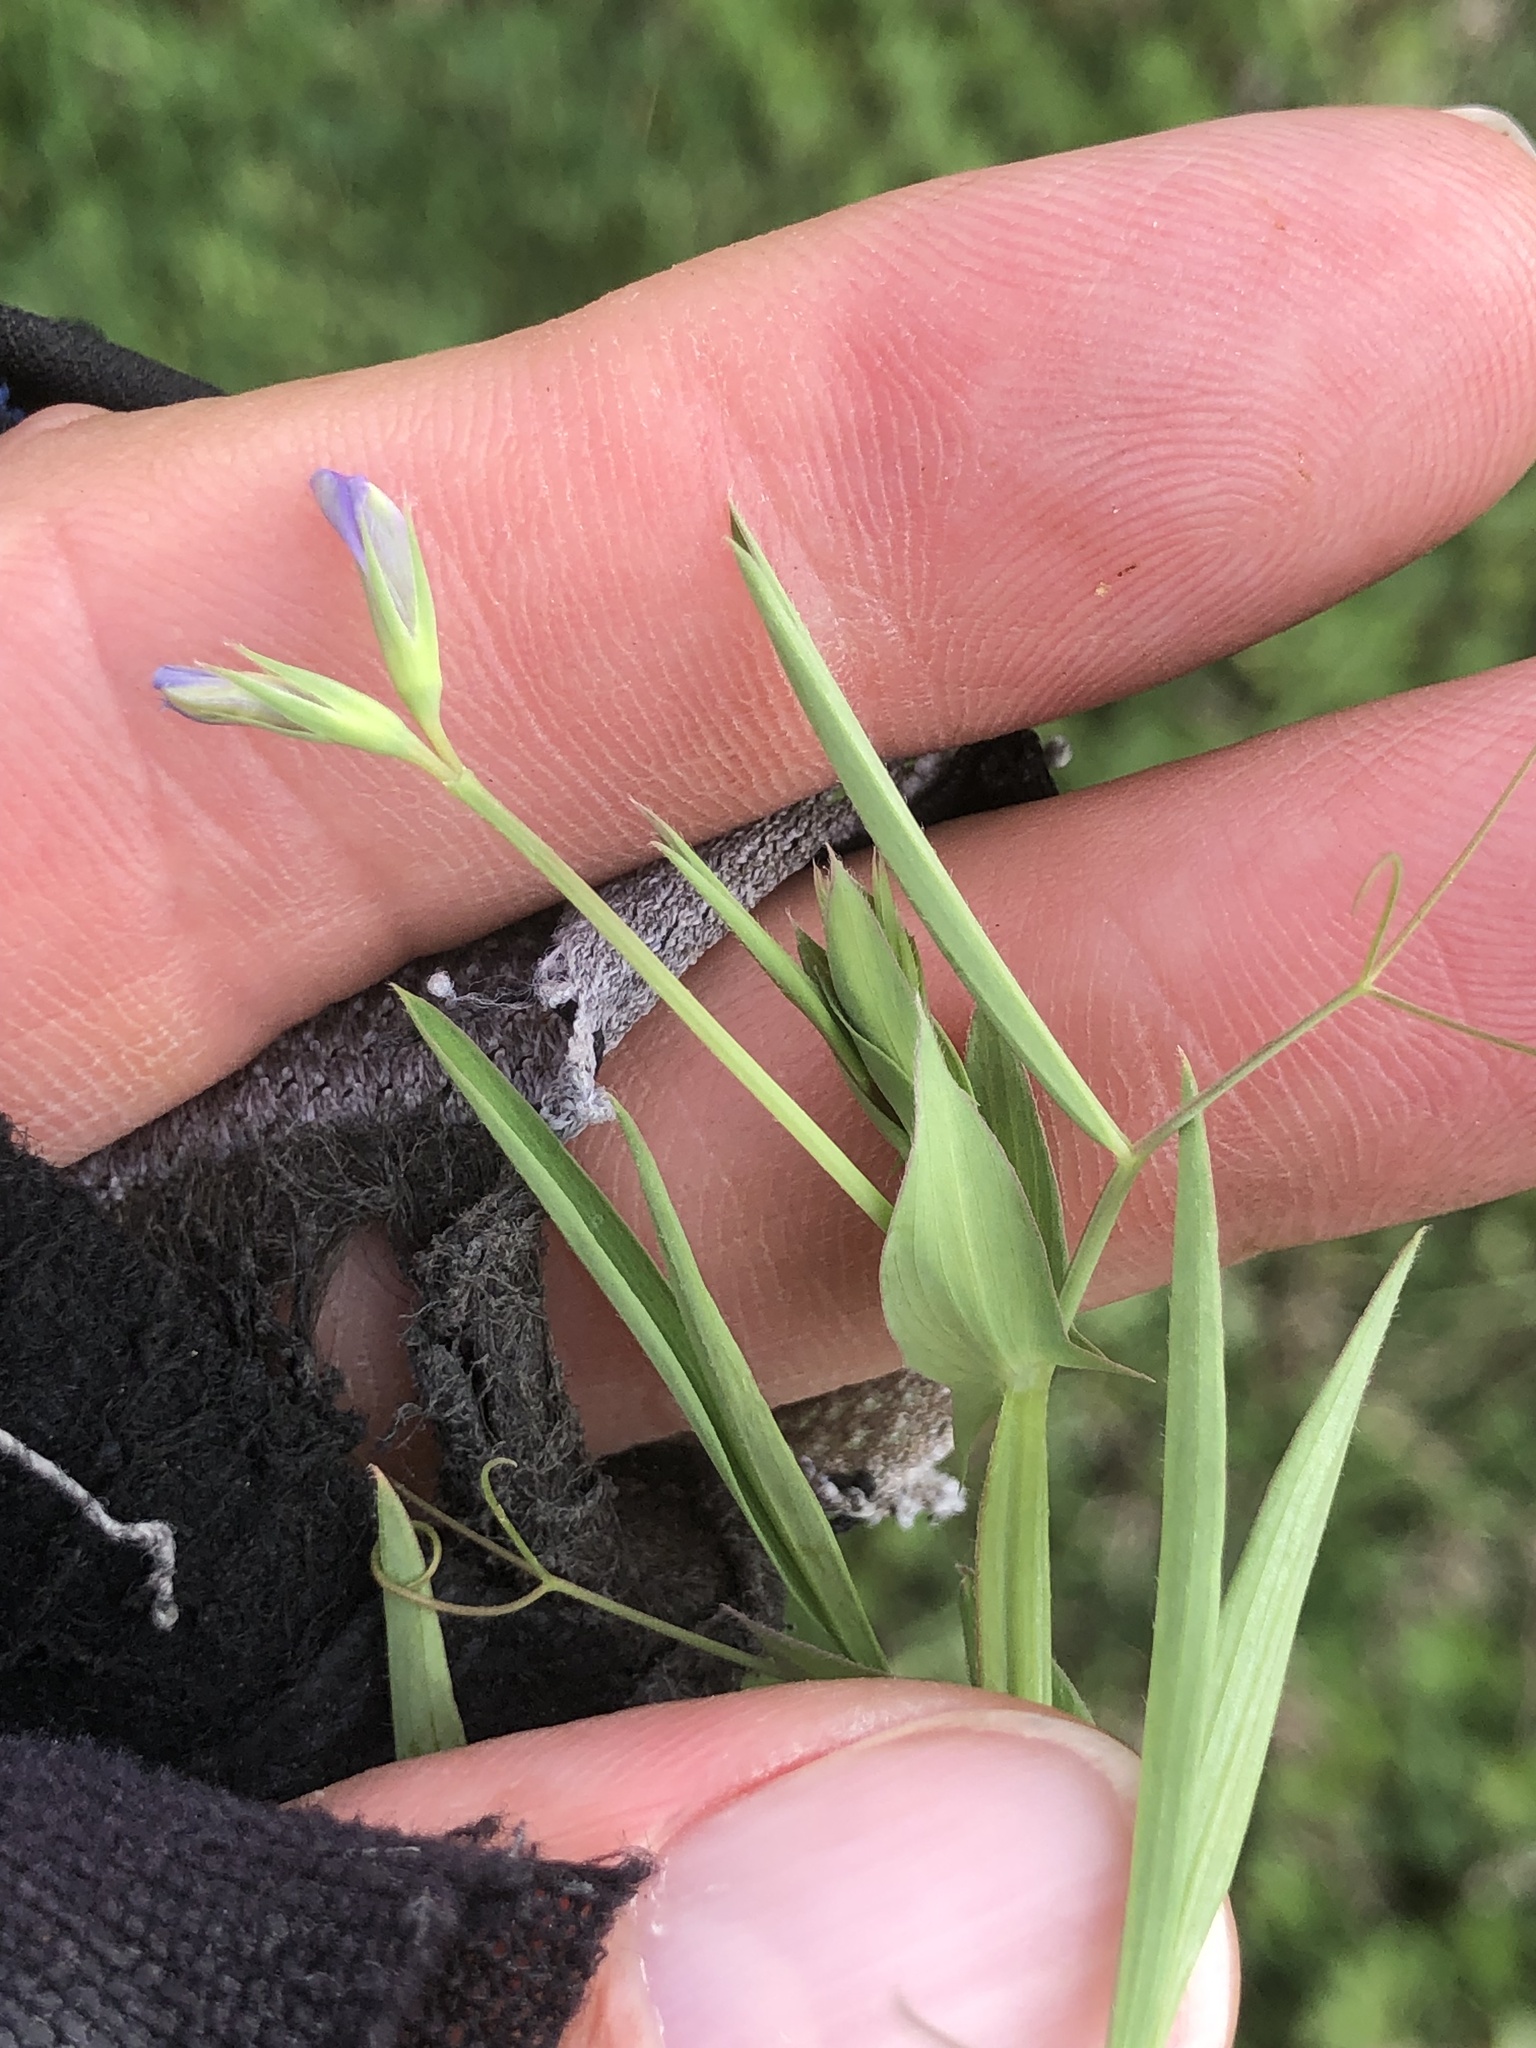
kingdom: Plantae
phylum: Tracheophyta
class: Magnoliopsida
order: Fabales
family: Fabaceae
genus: Lathyrus
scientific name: Lathyrus pusillus
